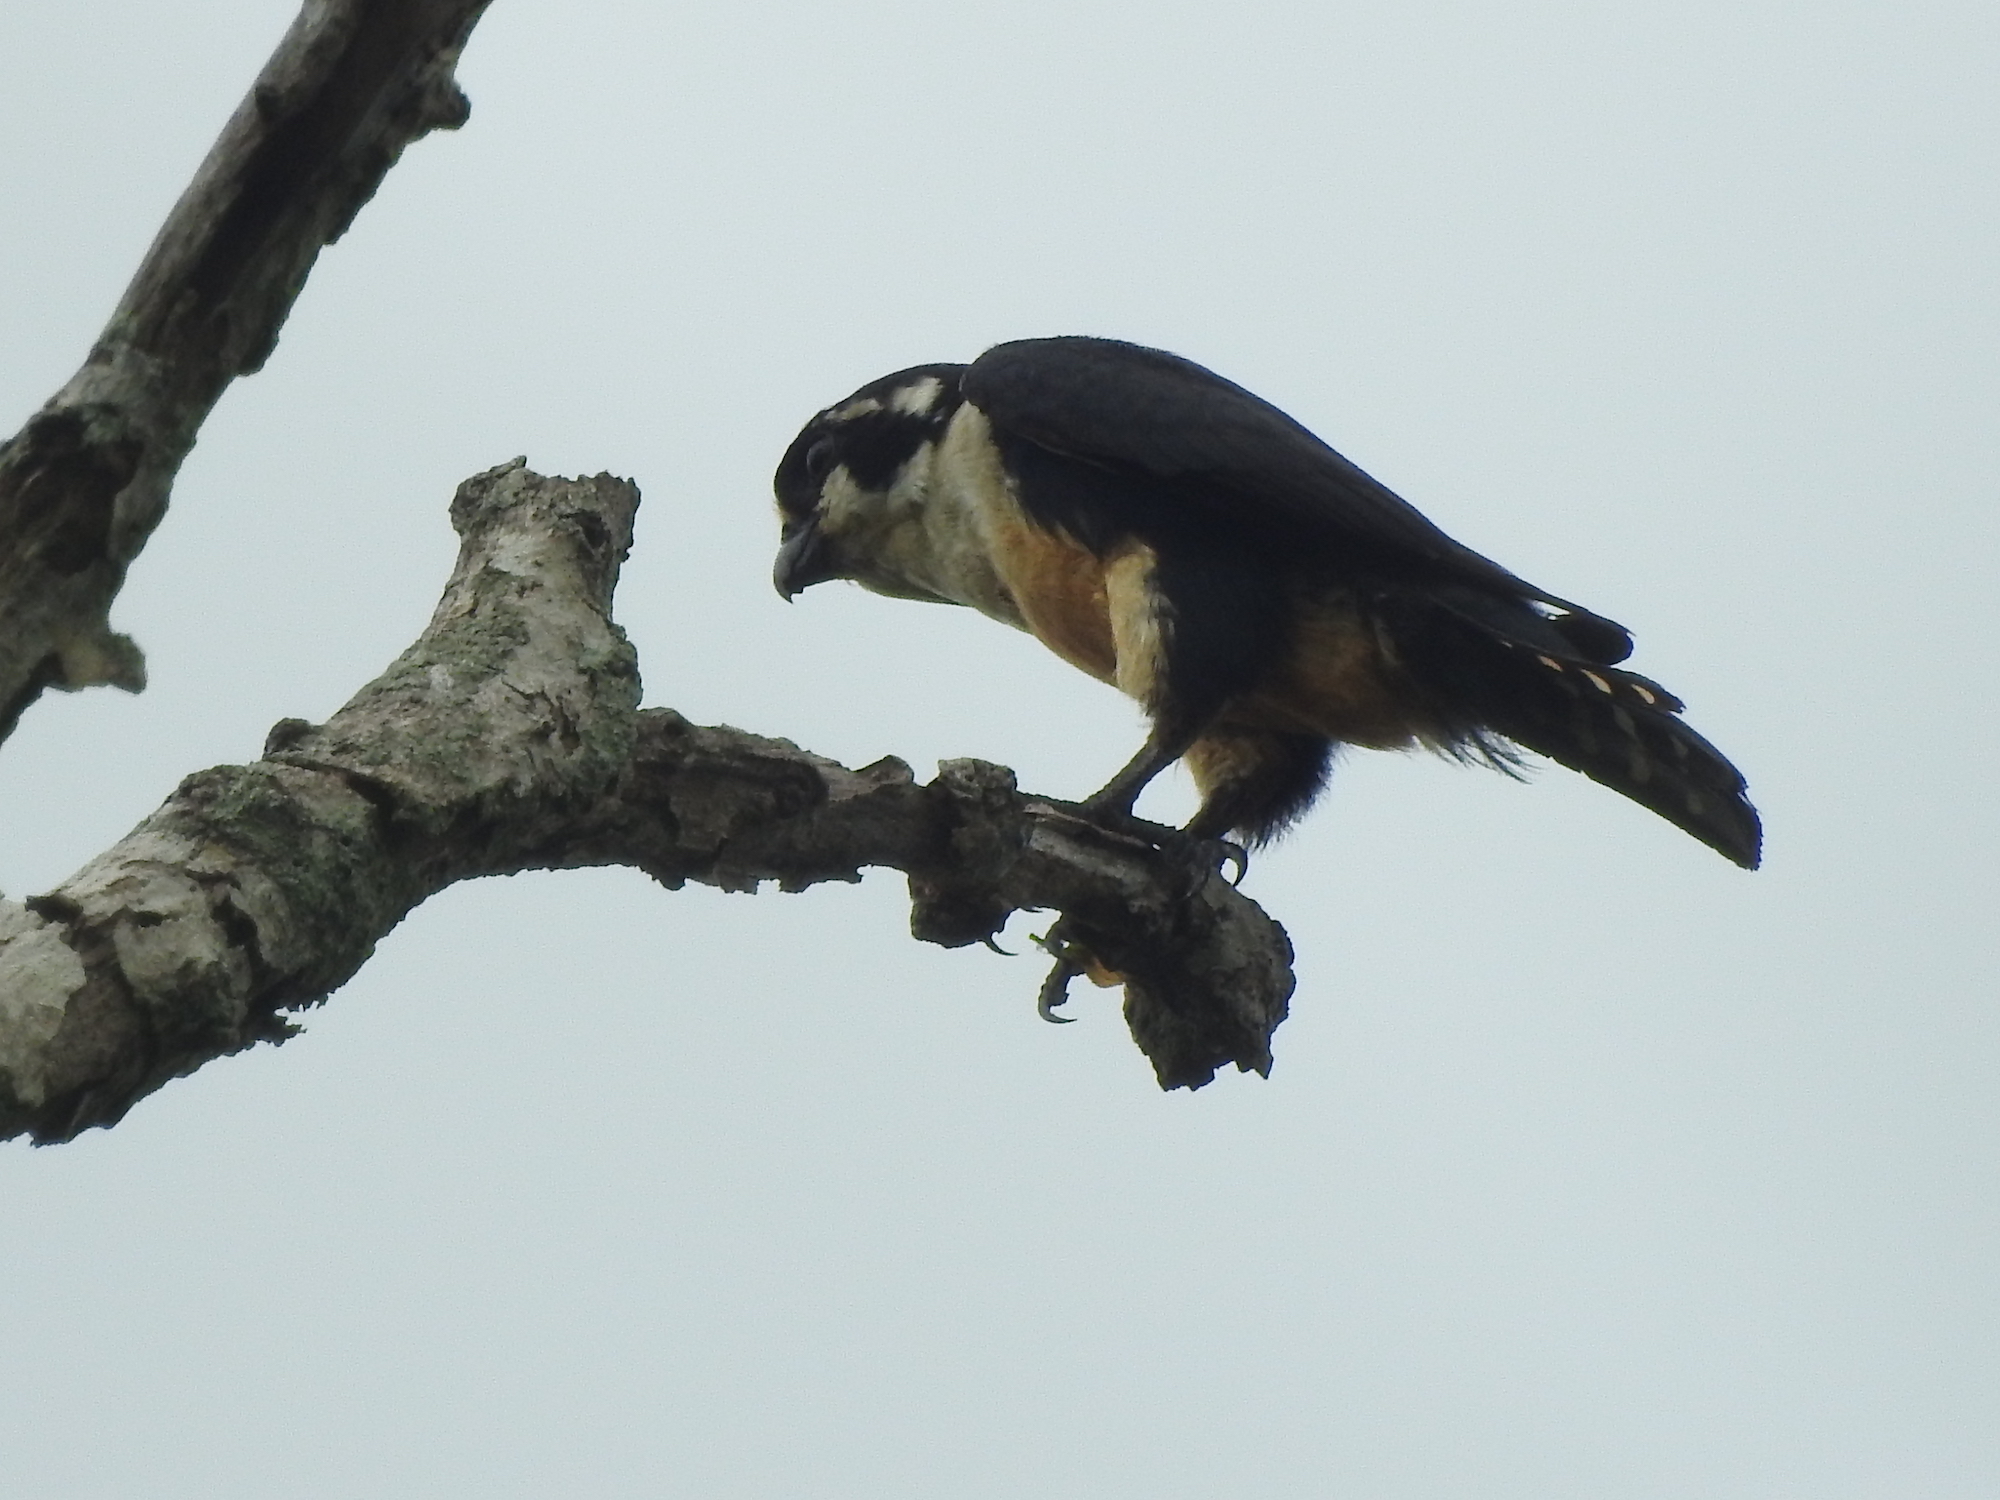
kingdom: Animalia
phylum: Chordata
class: Aves
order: Falconiformes
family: Falconidae
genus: Microhierax
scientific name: Microhierax fringillarius
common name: Black-thighed falconet
